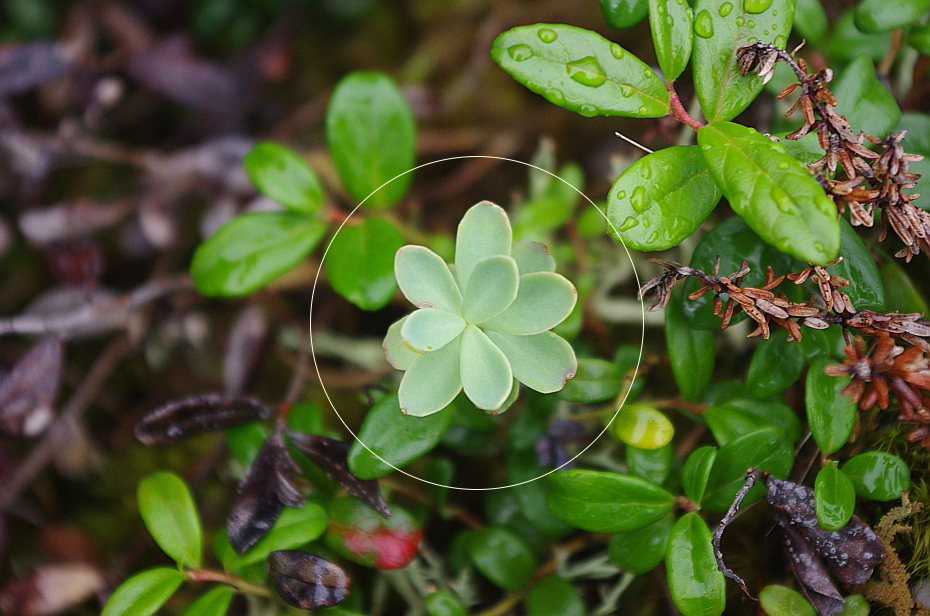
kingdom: Plantae
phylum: Tracheophyta
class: Magnoliopsida
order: Saxifragales
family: Crassulaceae
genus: Rhodiola
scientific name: Rhodiola rosea
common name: Roseroot
